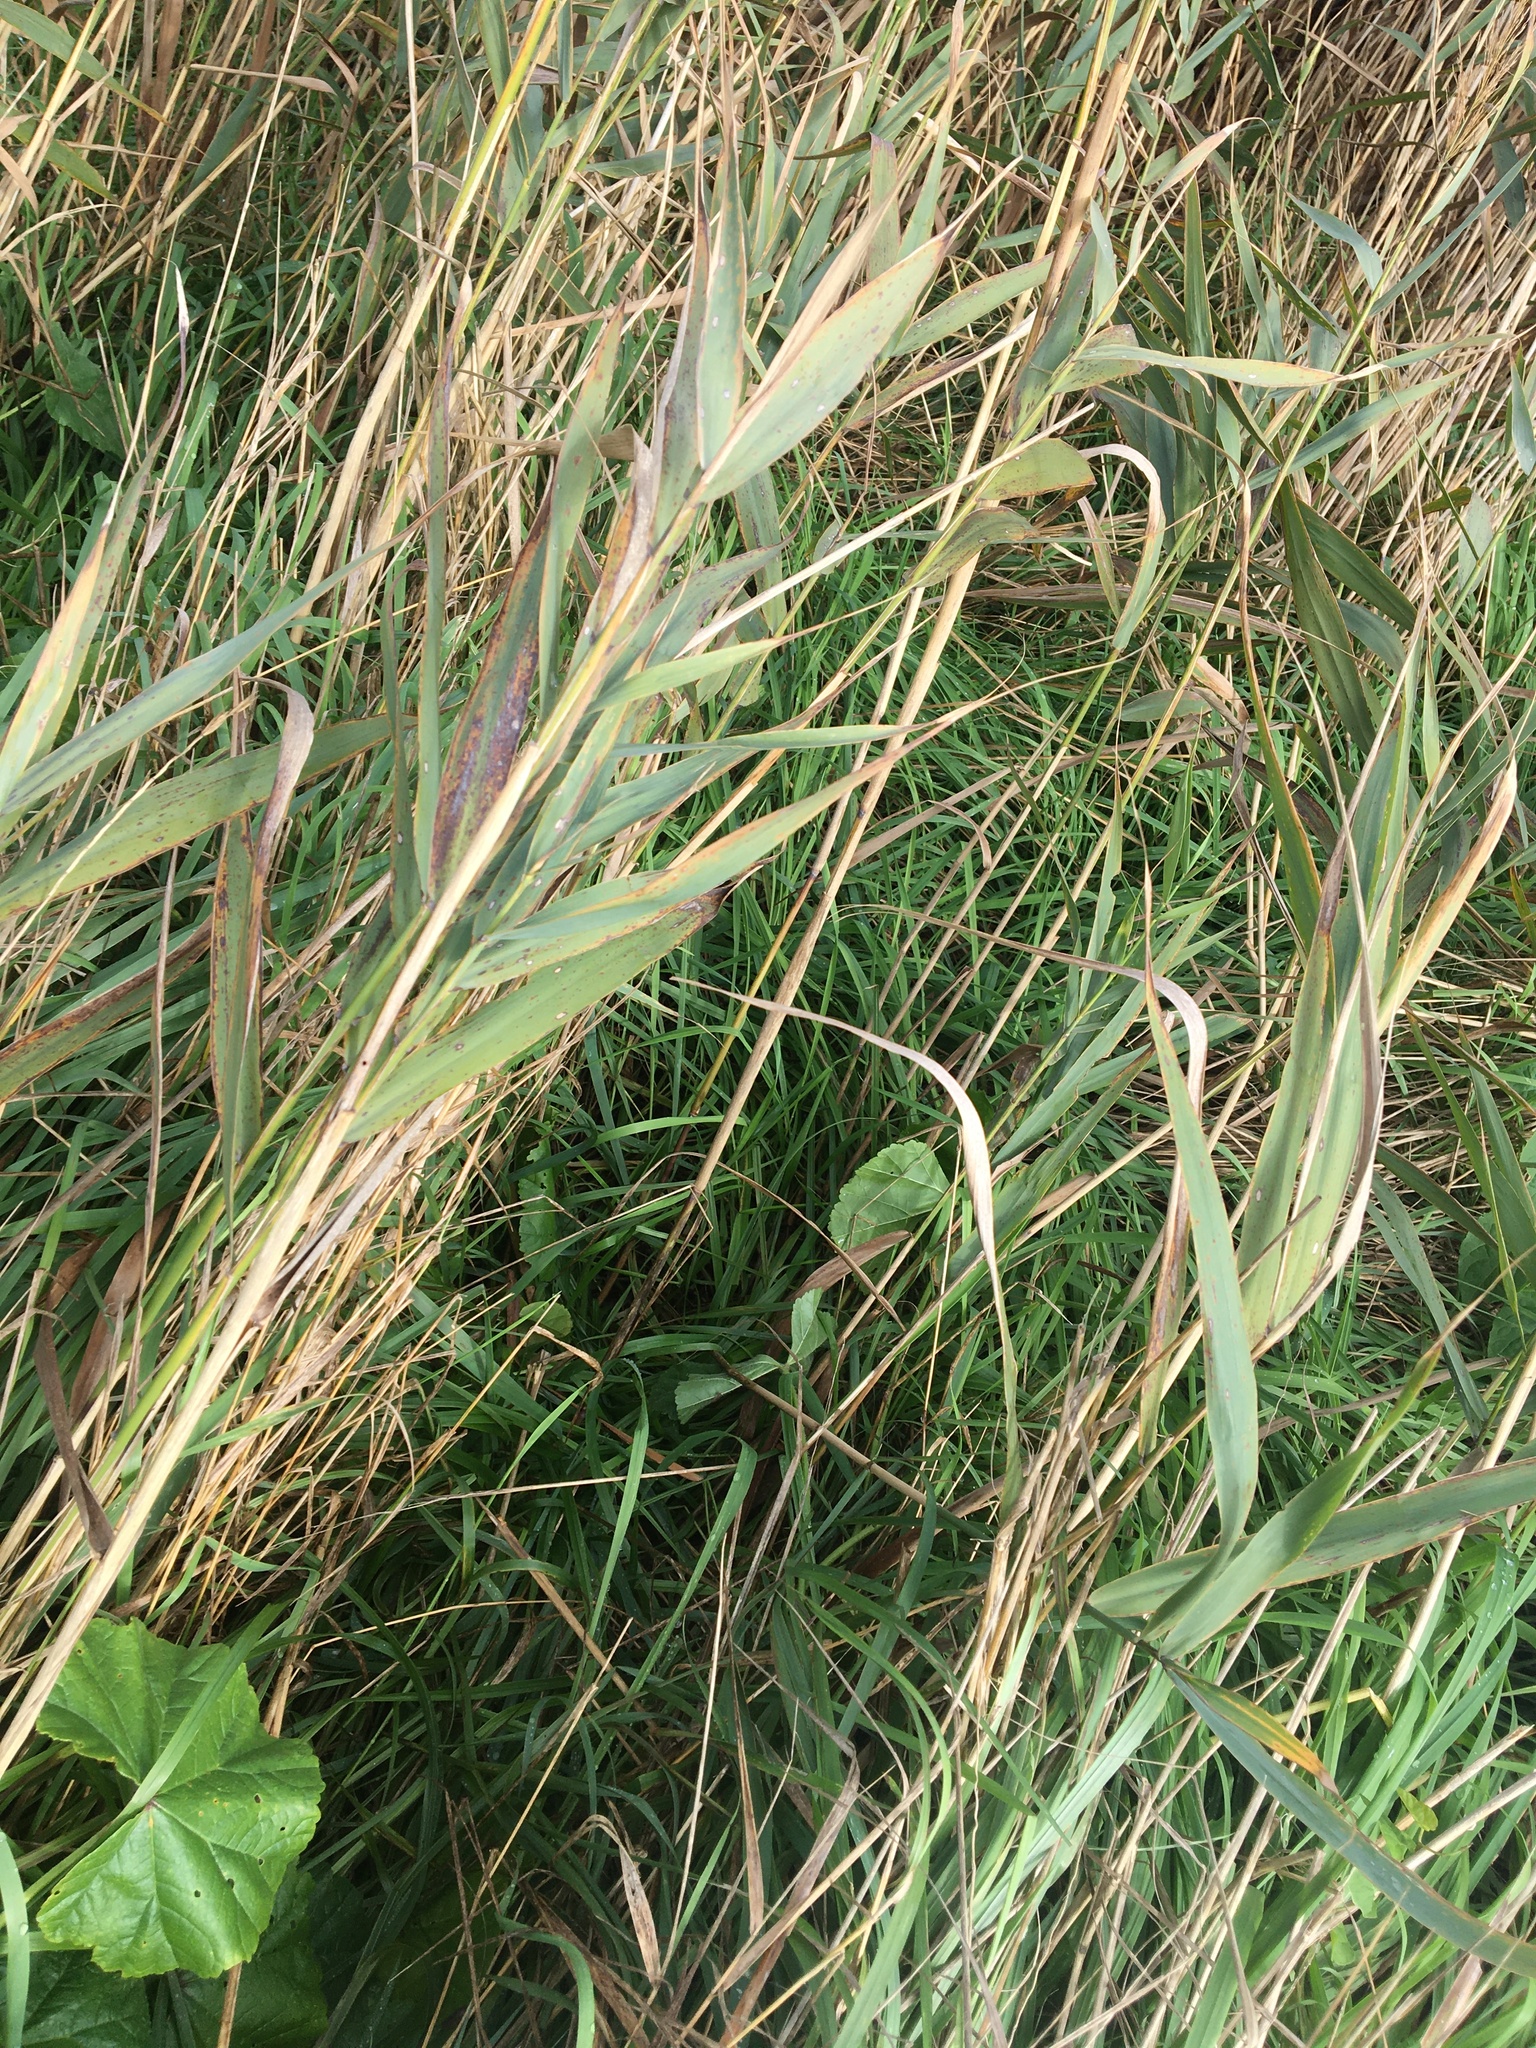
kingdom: Plantae
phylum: Tracheophyta
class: Liliopsida
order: Poales
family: Poaceae
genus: Phragmites
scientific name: Phragmites australis
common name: Common reed
